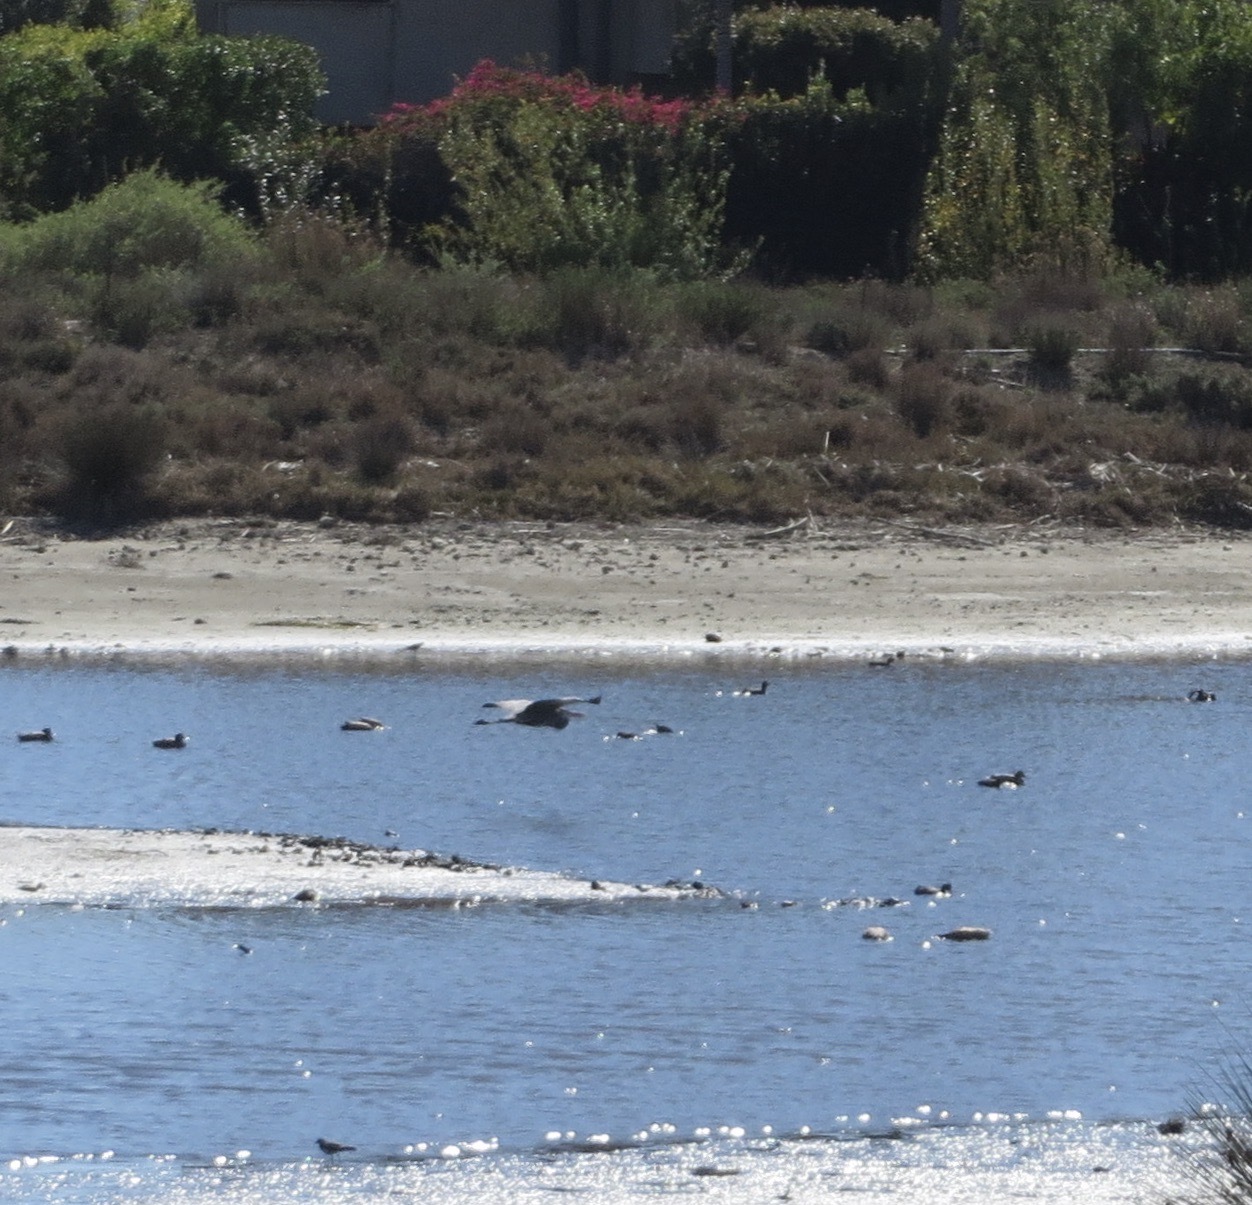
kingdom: Animalia
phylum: Chordata
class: Aves
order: Pelecaniformes
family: Ardeidae
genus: Ardea
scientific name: Ardea herodias
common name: Great blue heron
